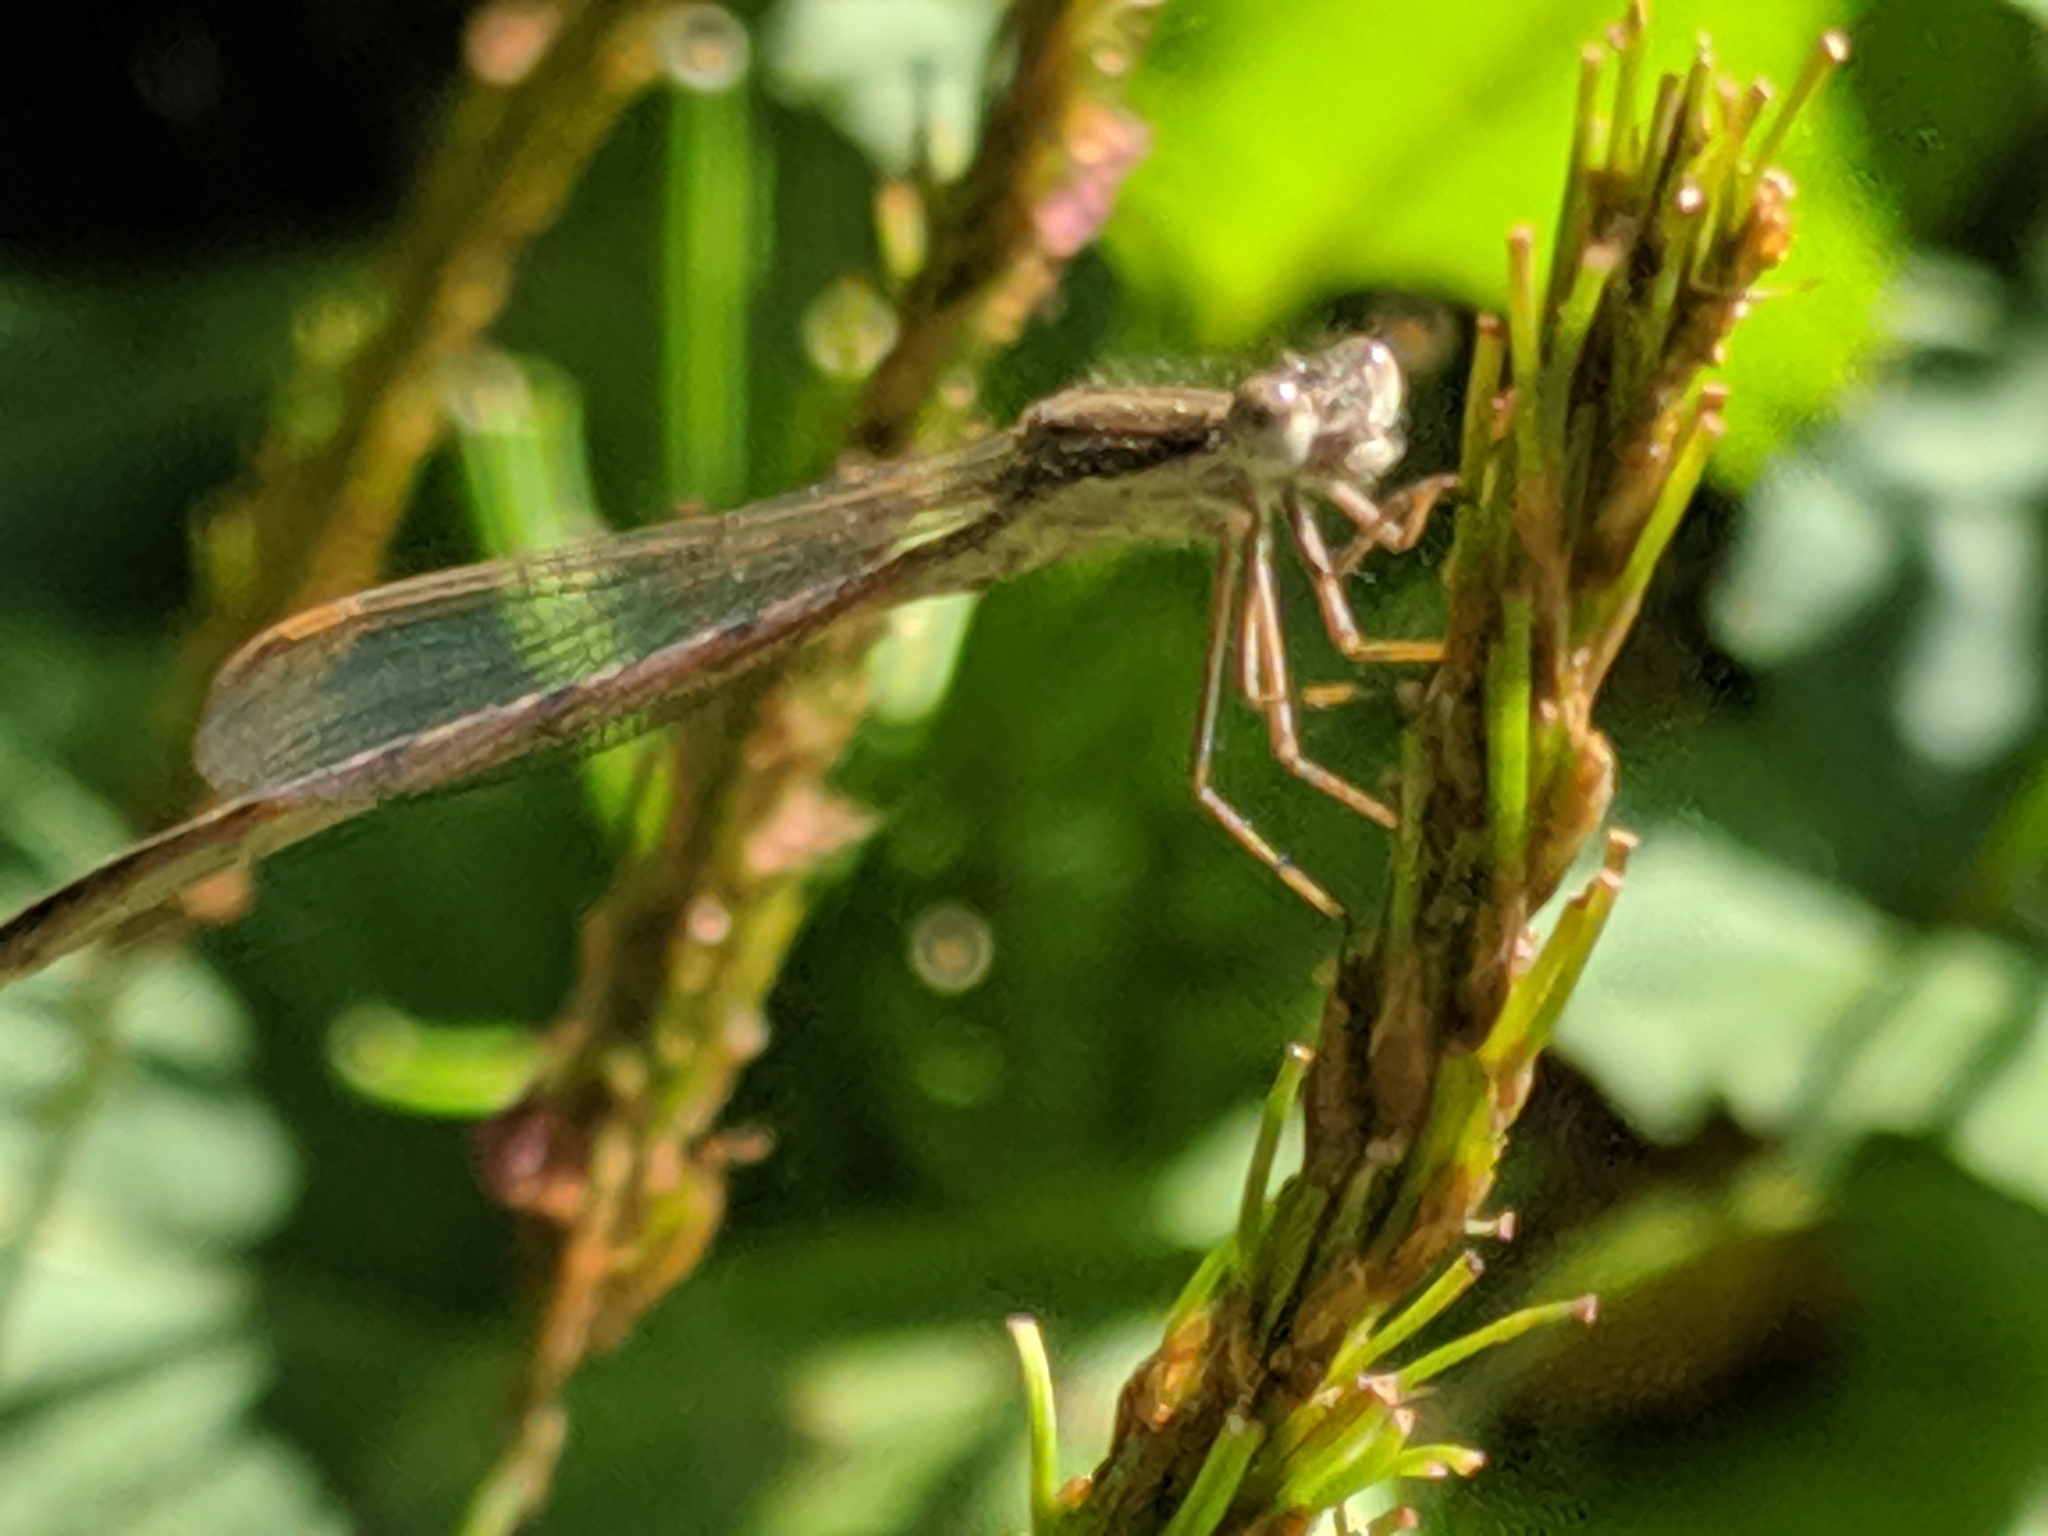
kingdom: Animalia
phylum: Arthropoda
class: Insecta
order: Odonata
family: Lestidae
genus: Sympecma
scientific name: Sympecma fusca
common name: Common winter damsel
